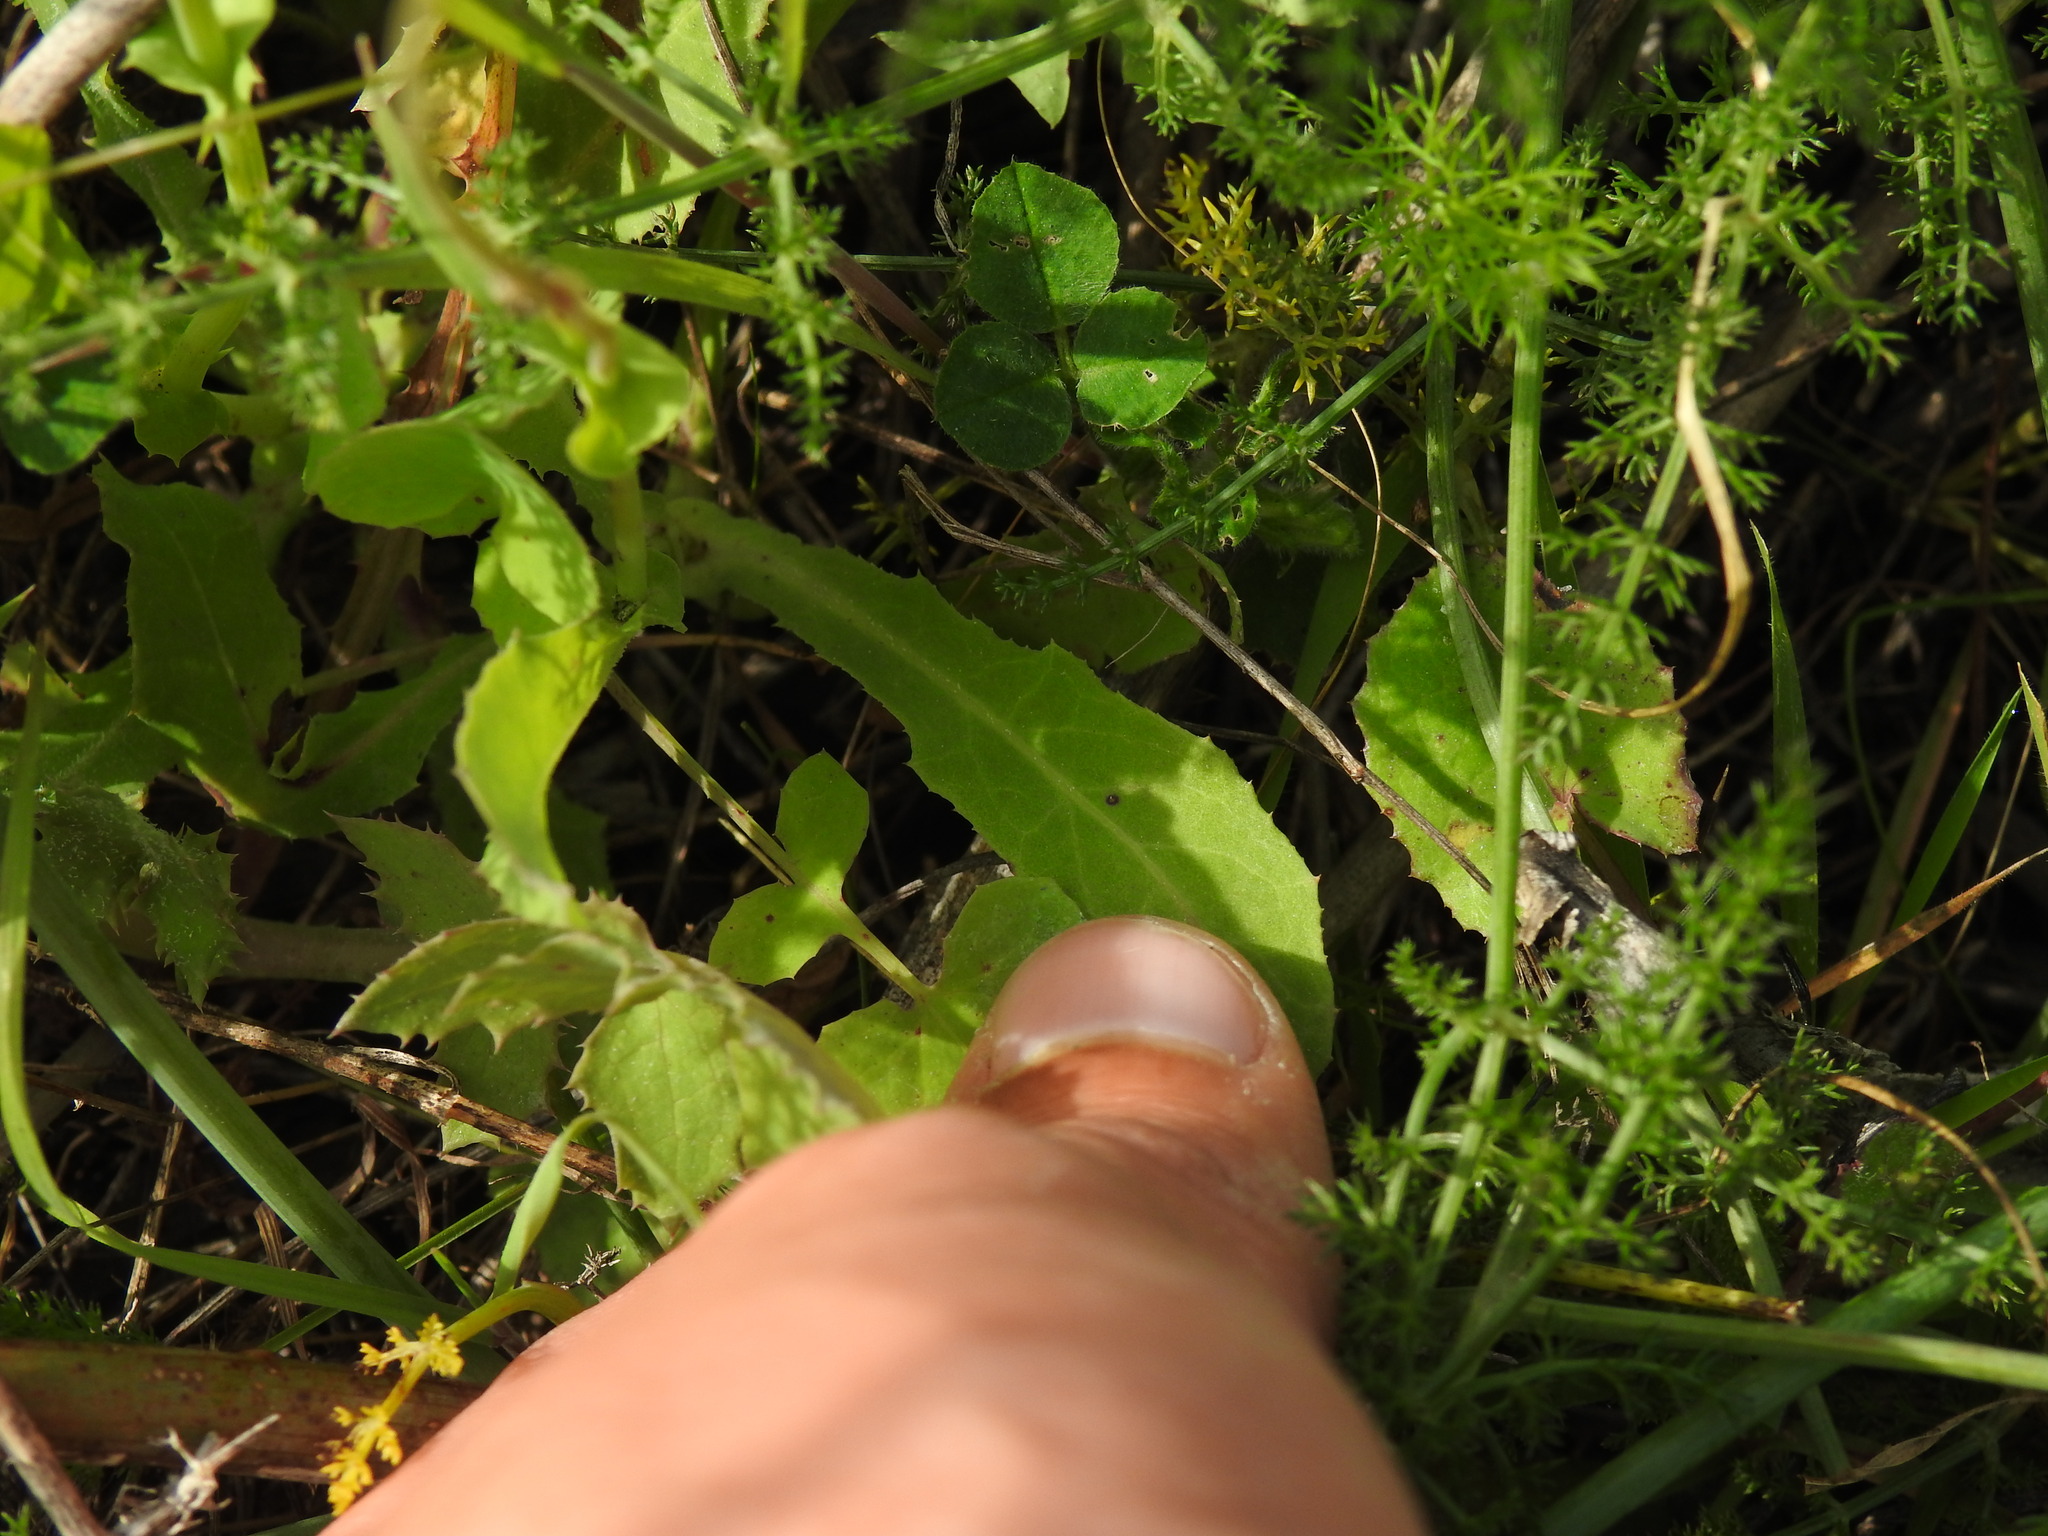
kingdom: Plantae
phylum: Tracheophyta
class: Magnoliopsida
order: Asterales
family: Asteraceae
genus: Reichardia
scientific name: Reichardia intermedia
